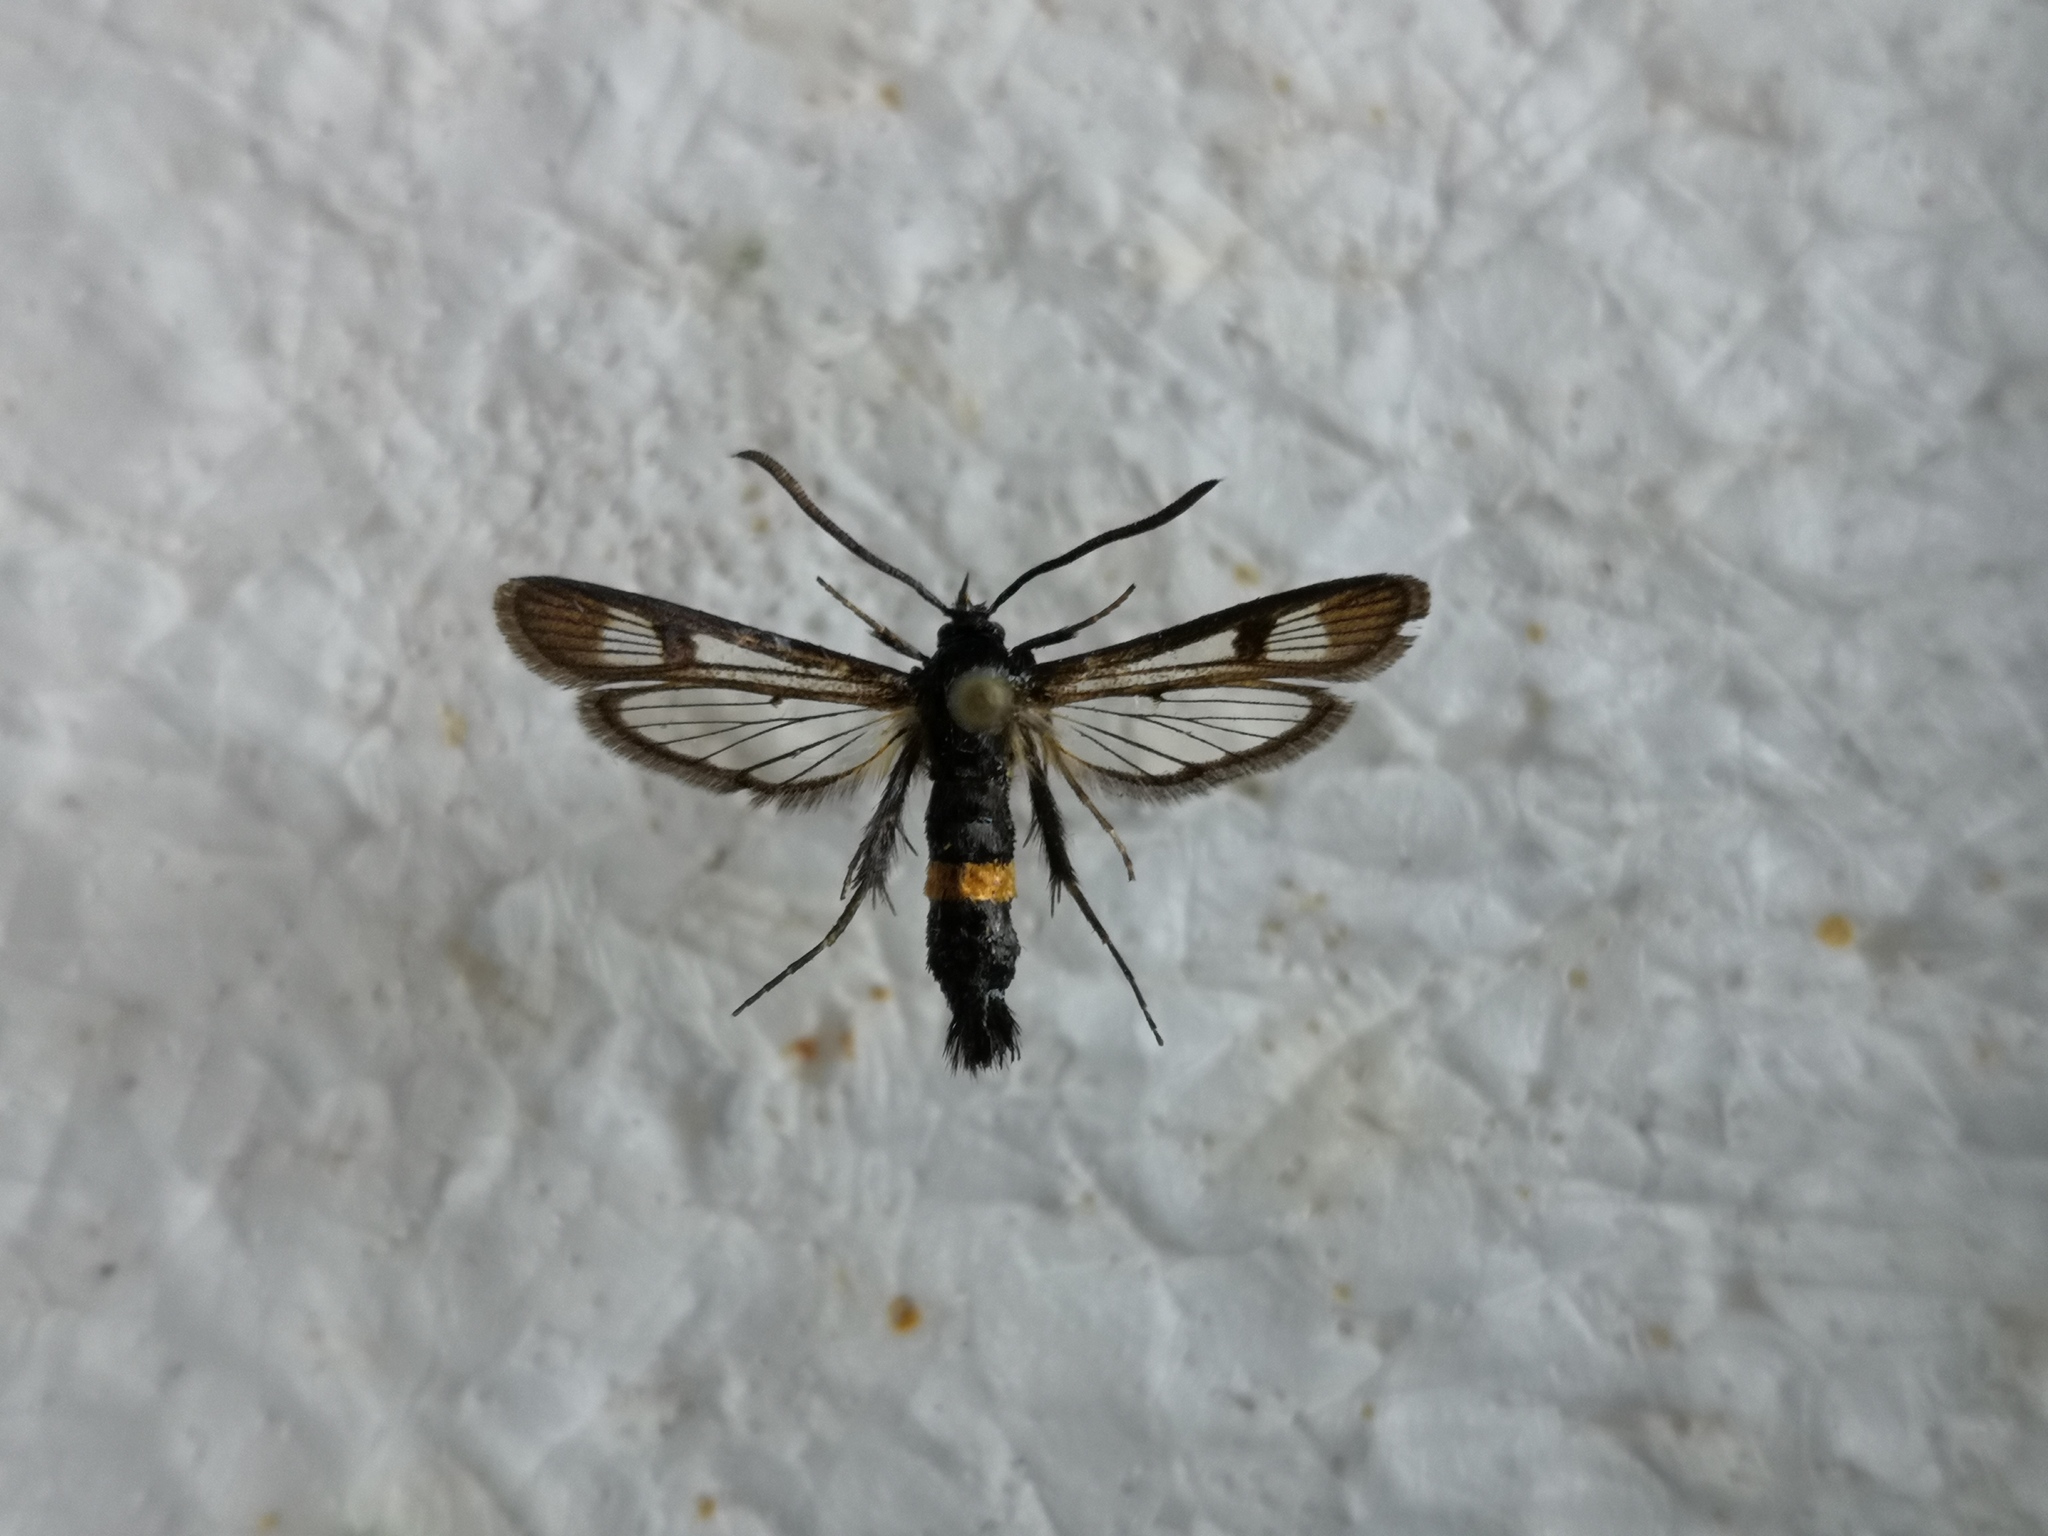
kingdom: Animalia
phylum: Arthropoda
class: Insecta
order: Lepidoptera
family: Sesiidae
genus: Synanthedon
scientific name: Synanthedon soffneri
